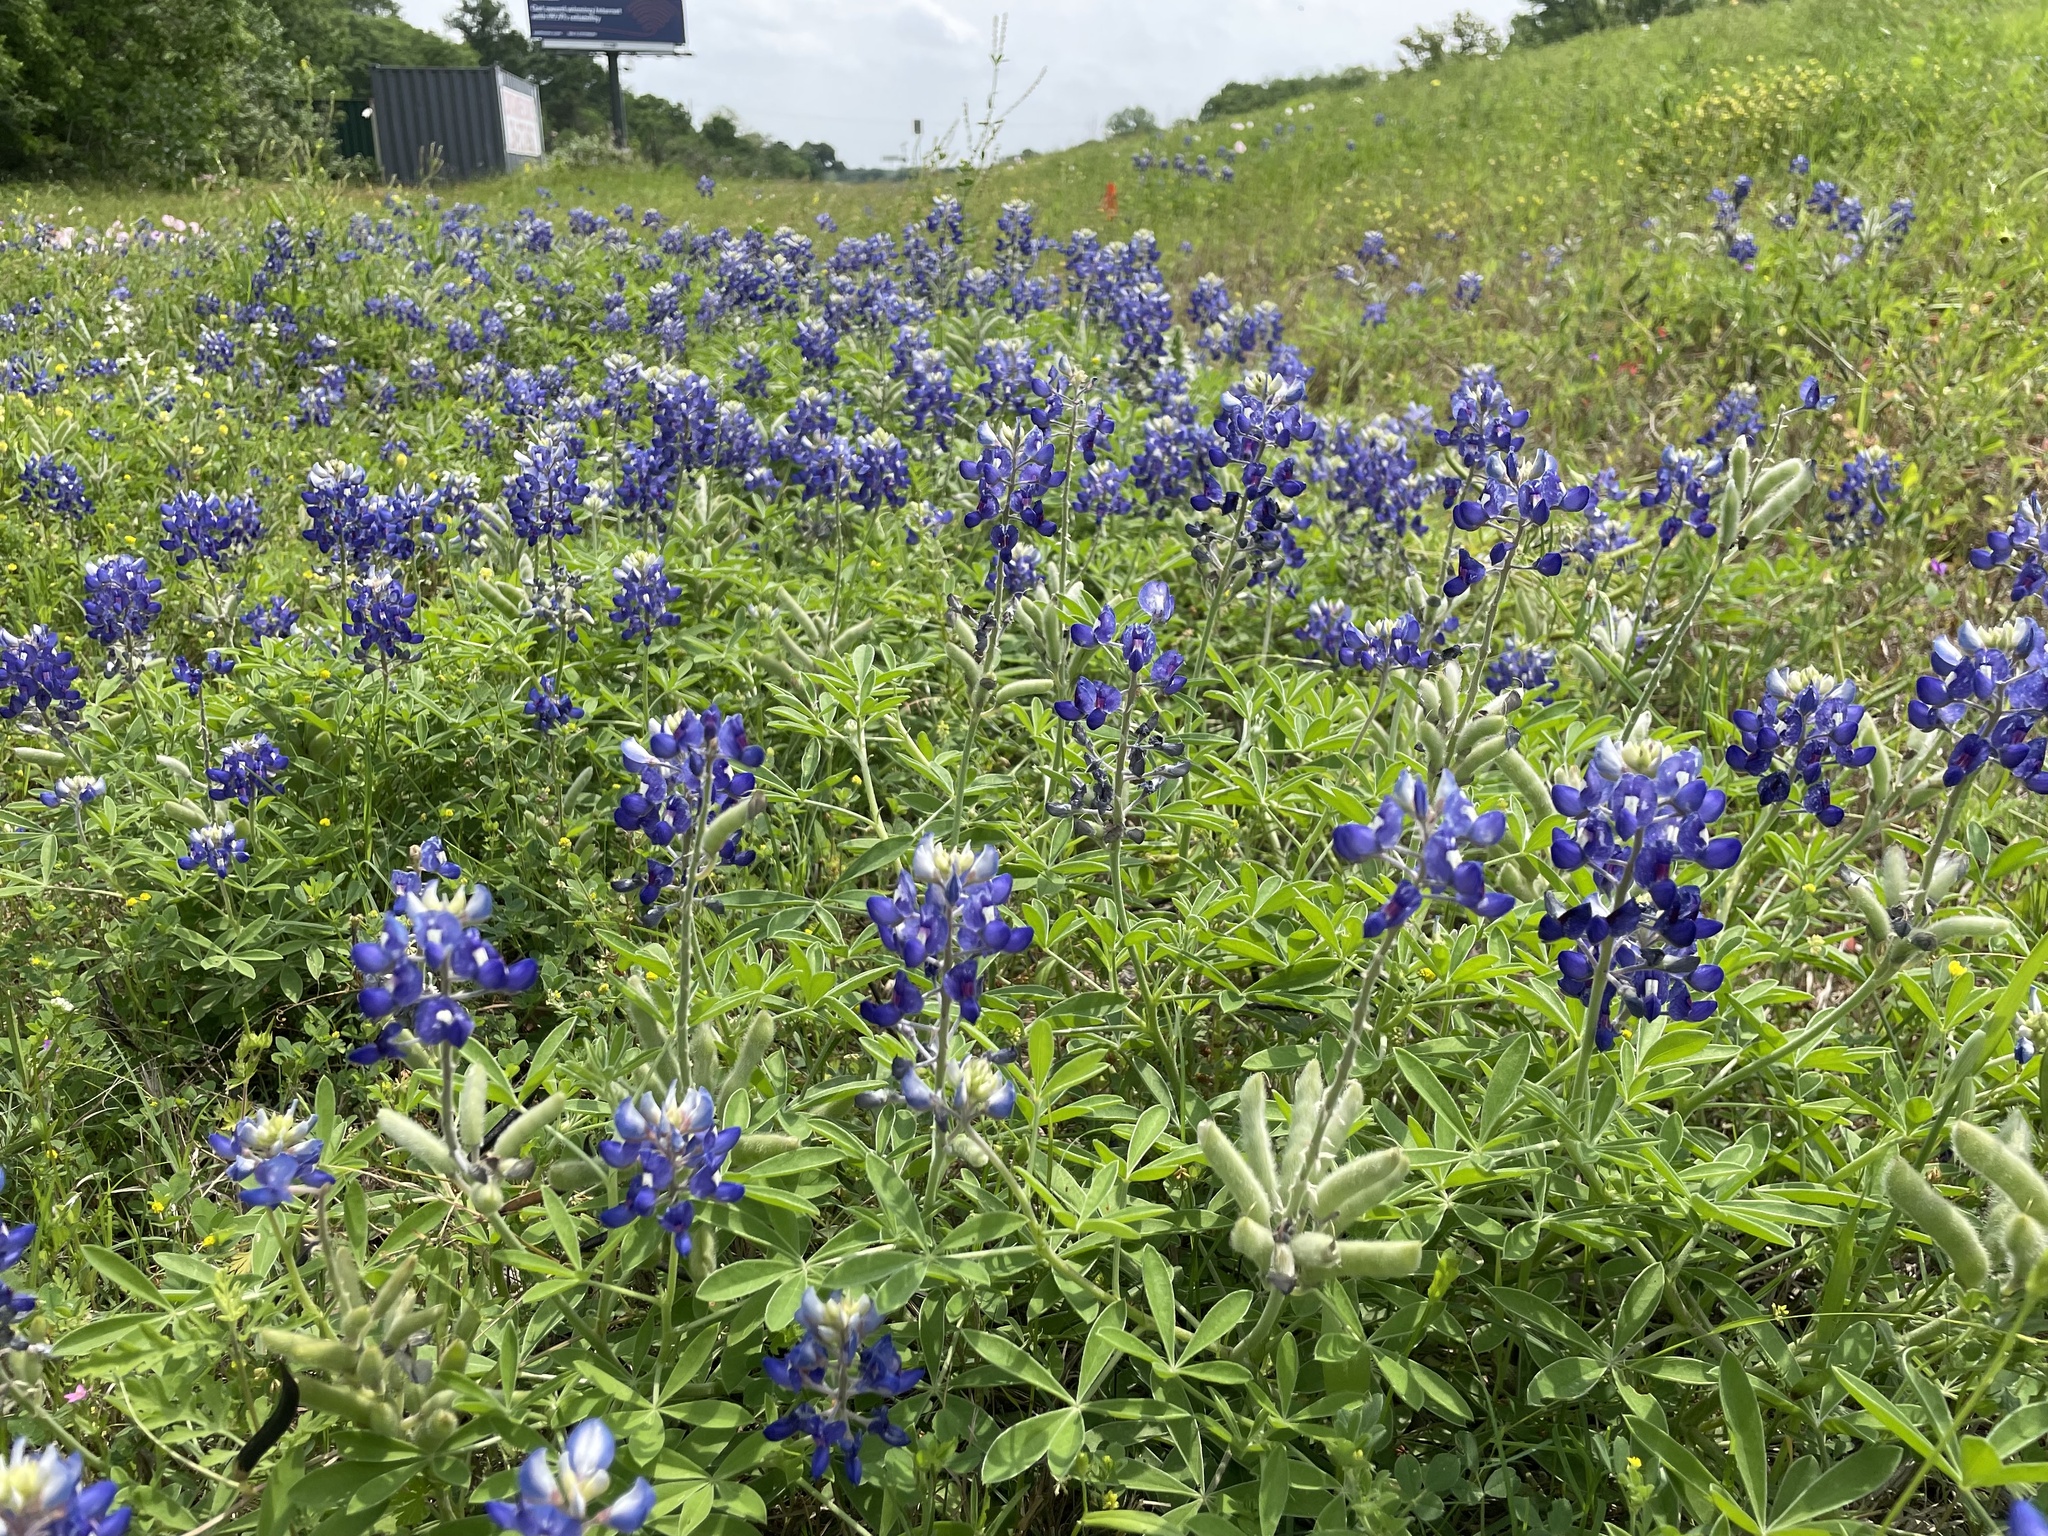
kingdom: Plantae
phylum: Tracheophyta
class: Magnoliopsida
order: Fabales
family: Fabaceae
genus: Lupinus
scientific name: Lupinus texensis
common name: Texas bluebonnet
